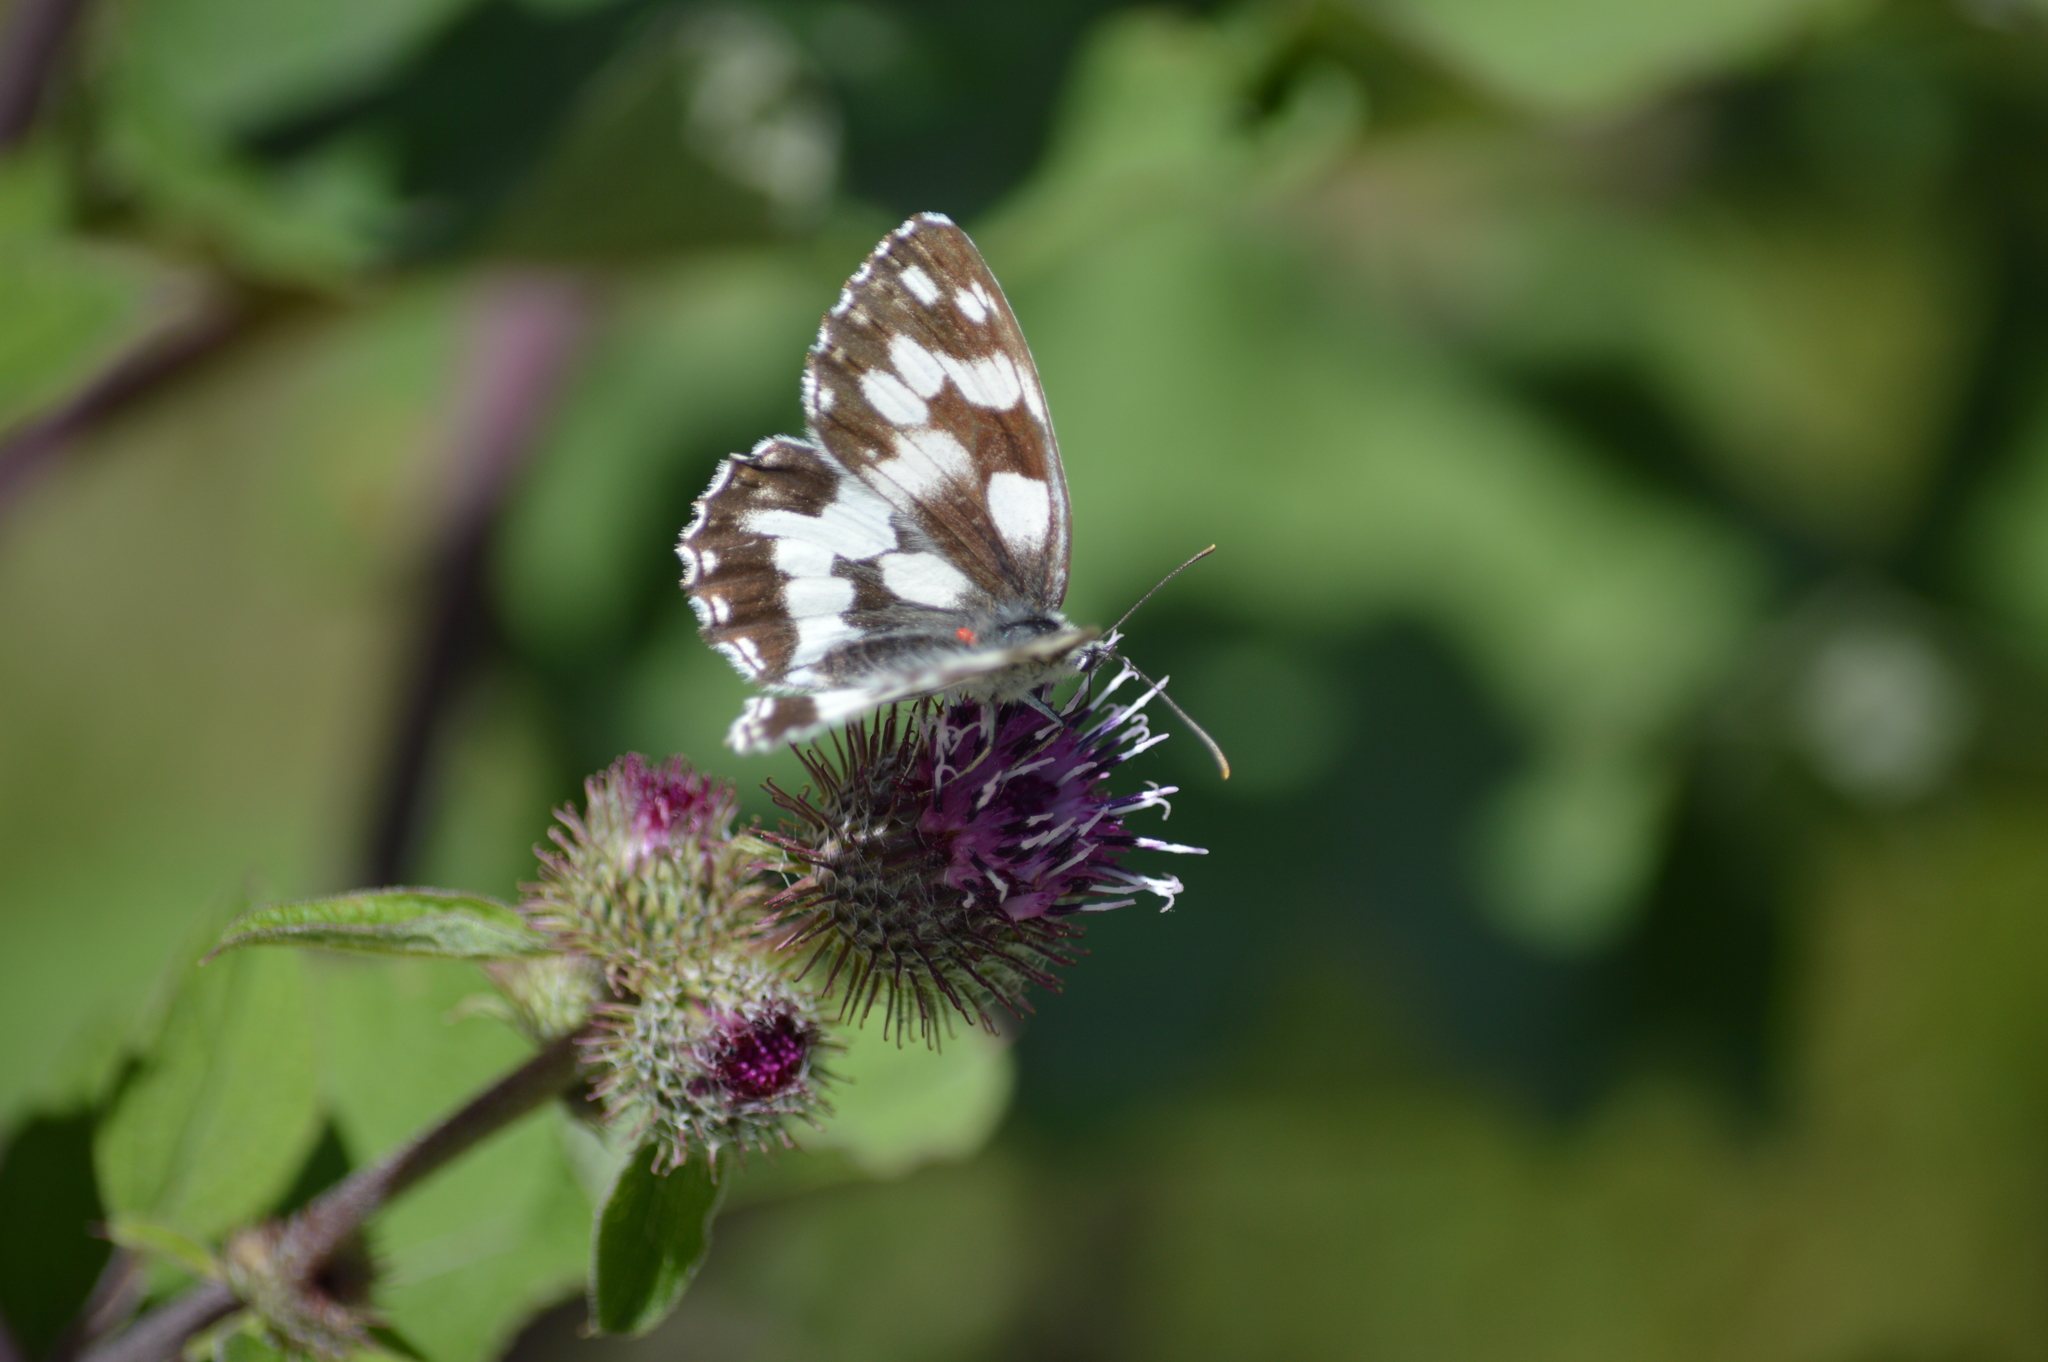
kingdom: Animalia
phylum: Arthropoda
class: Insecta
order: Lepidoptera
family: Nymphalidae
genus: Melanargia
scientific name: Melanargia galathea
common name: Marbled white
